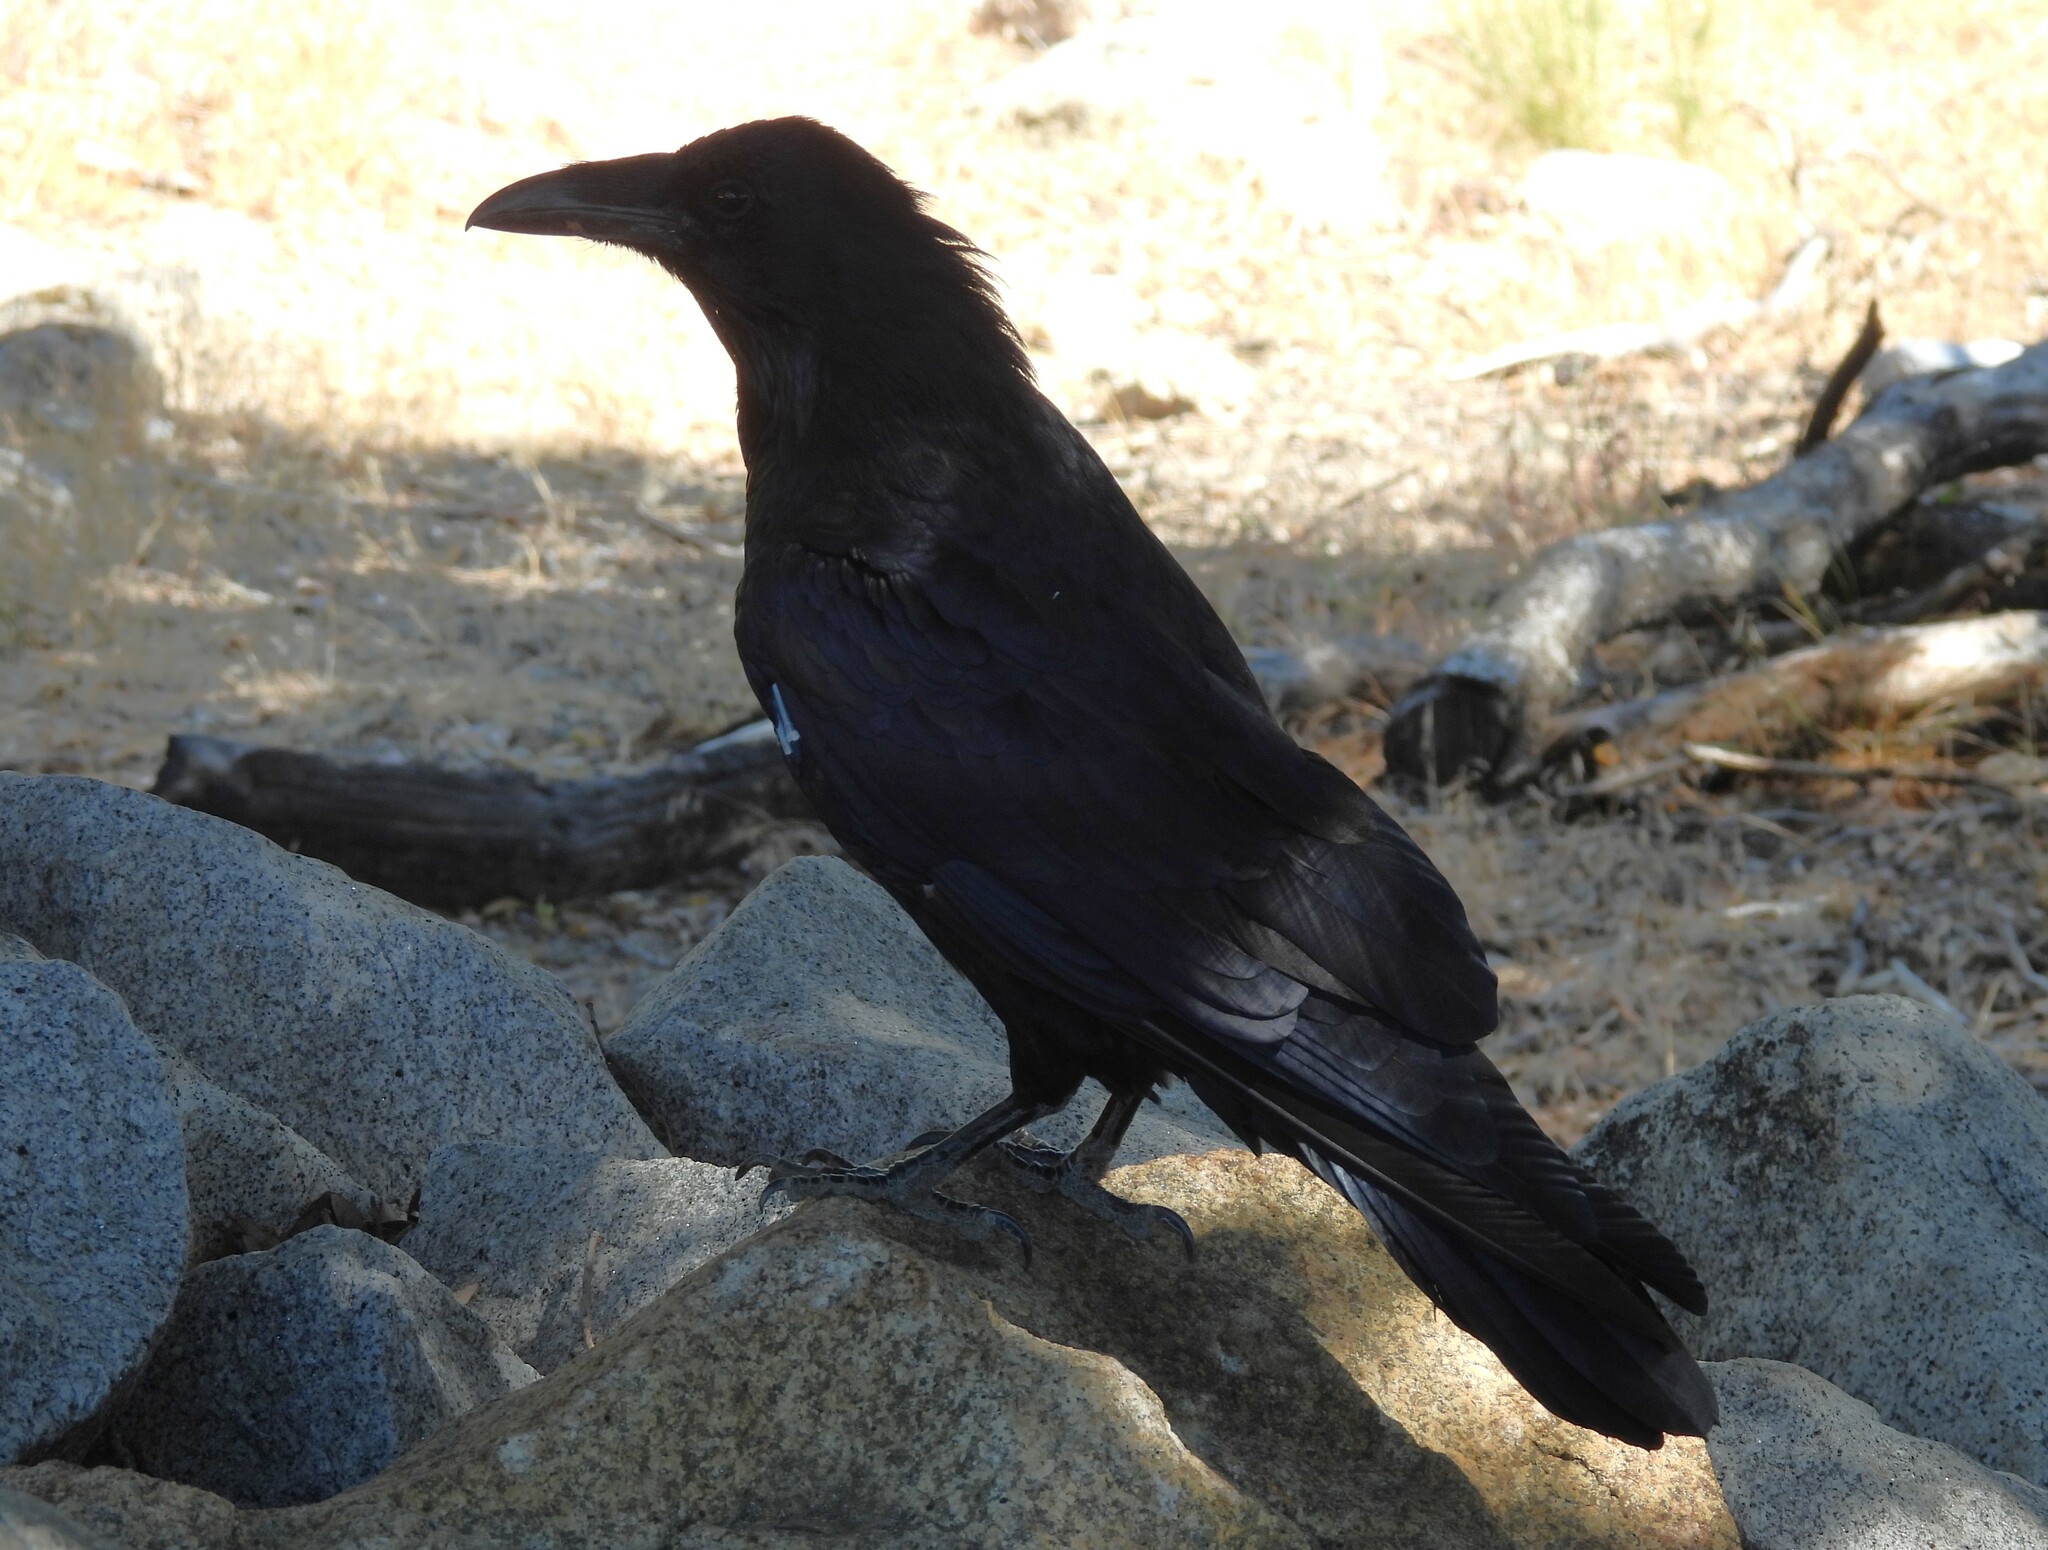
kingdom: Animalia
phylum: Chordata
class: Aves
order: Passeriformes
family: Corvidae
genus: Corvus
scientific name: Corvus corax
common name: Common raven
